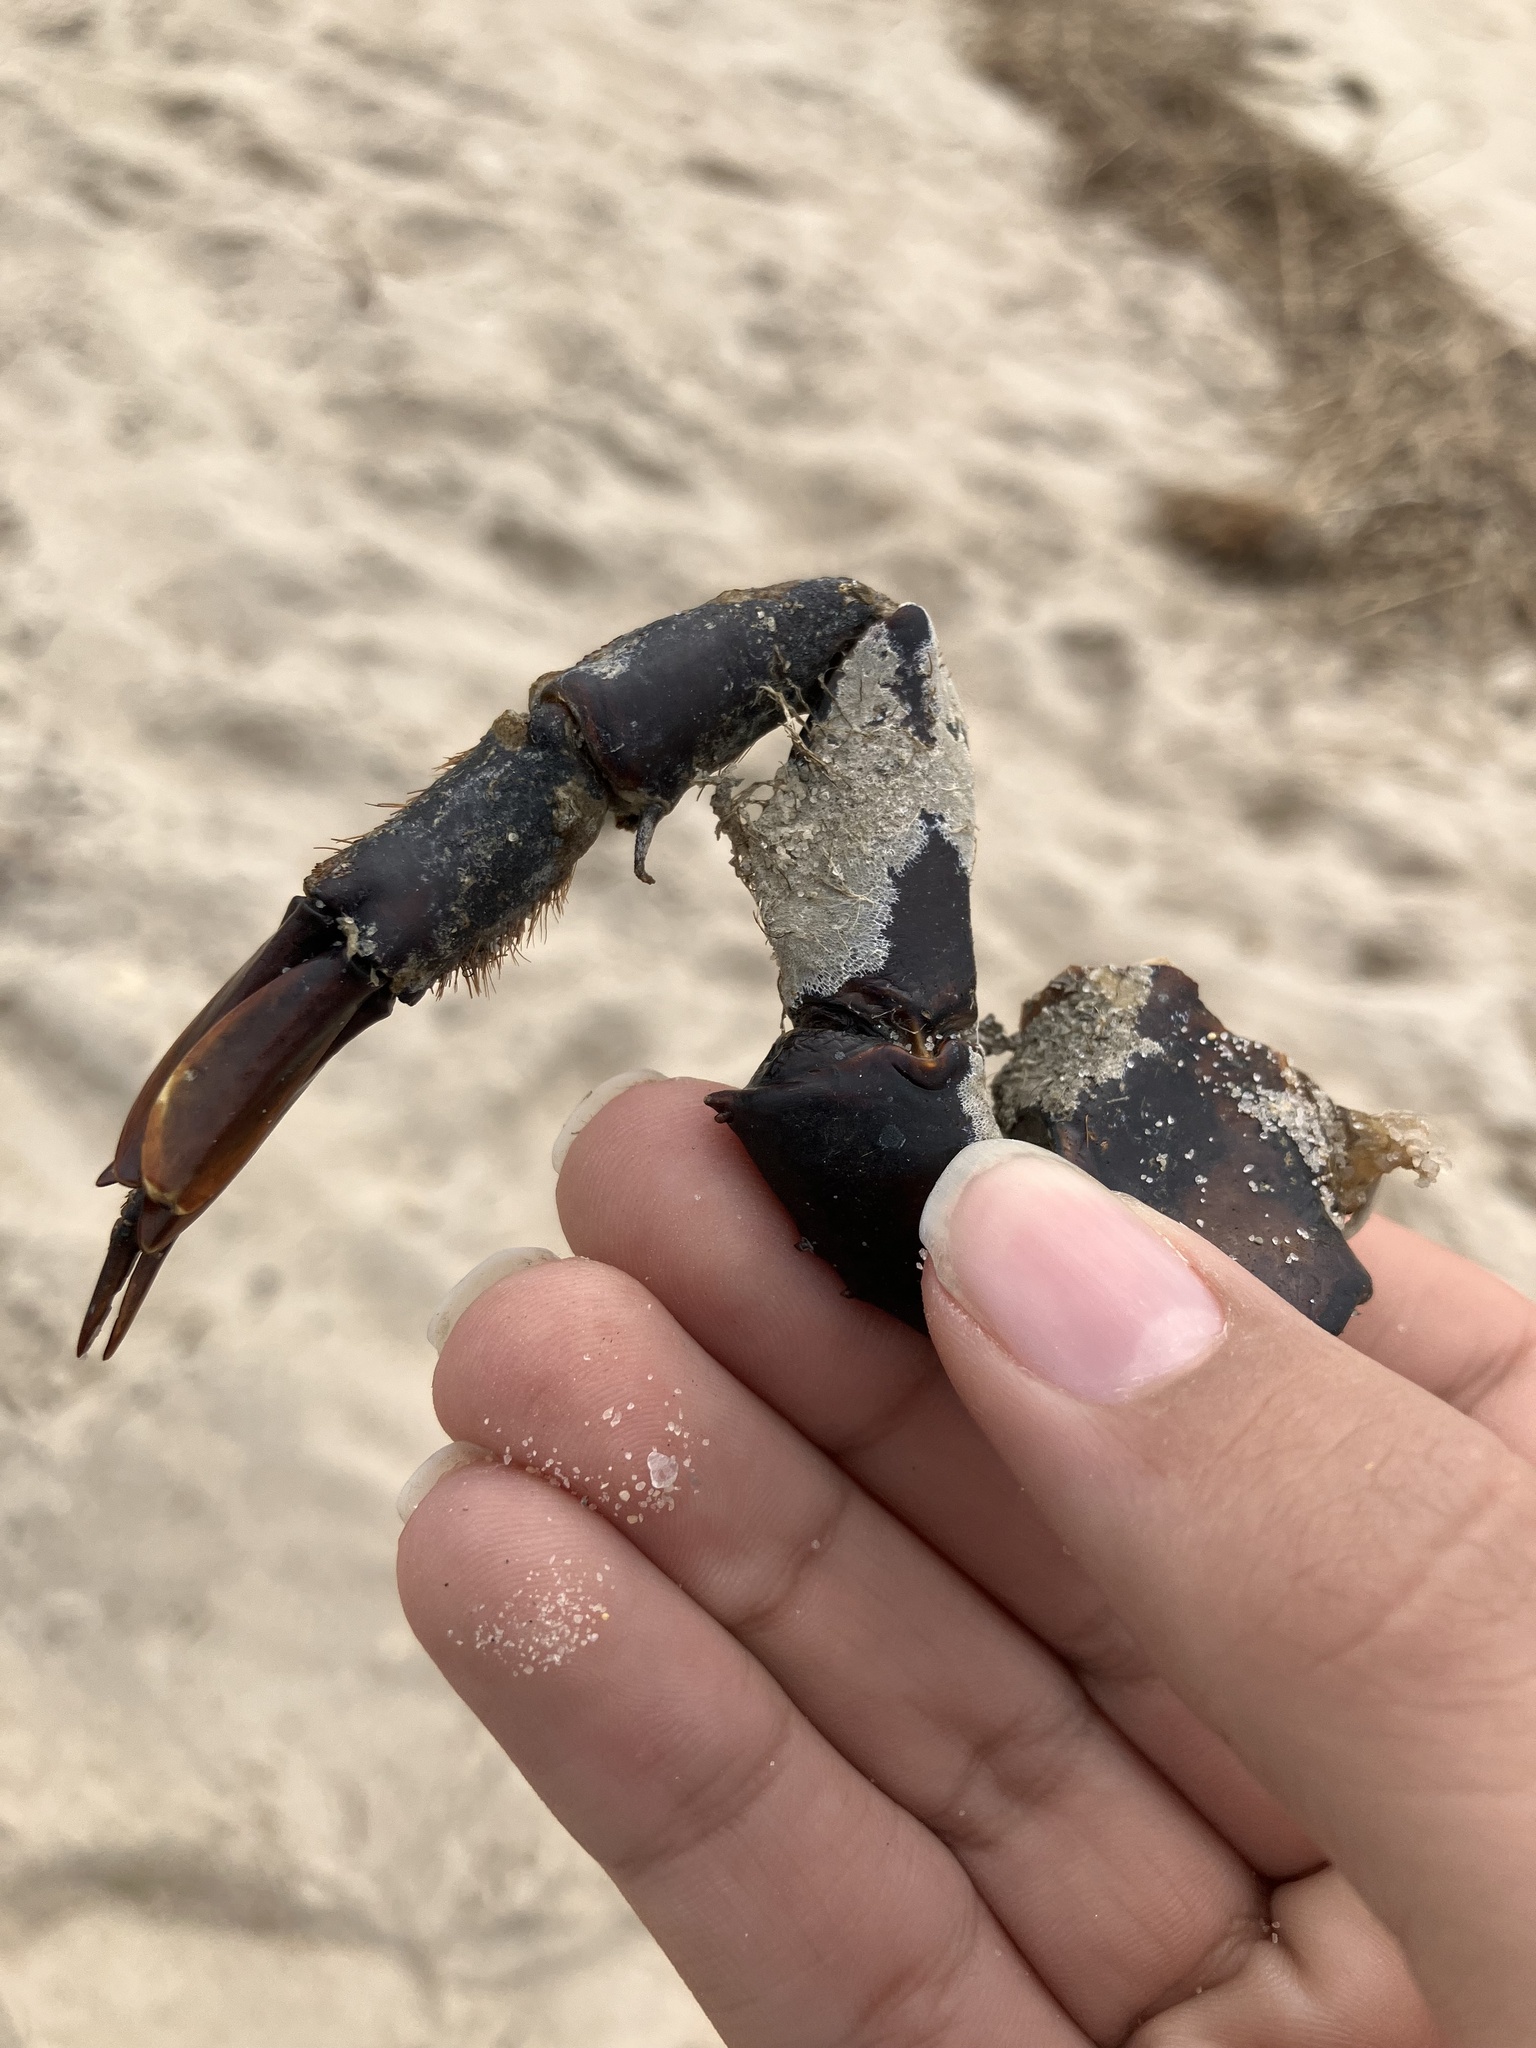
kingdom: Animalia
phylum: Arthropoda
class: Merostomata
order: Xiphosurida
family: Limulidae
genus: Limulus
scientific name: Limulus polyphemus
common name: Horseshoe crab
